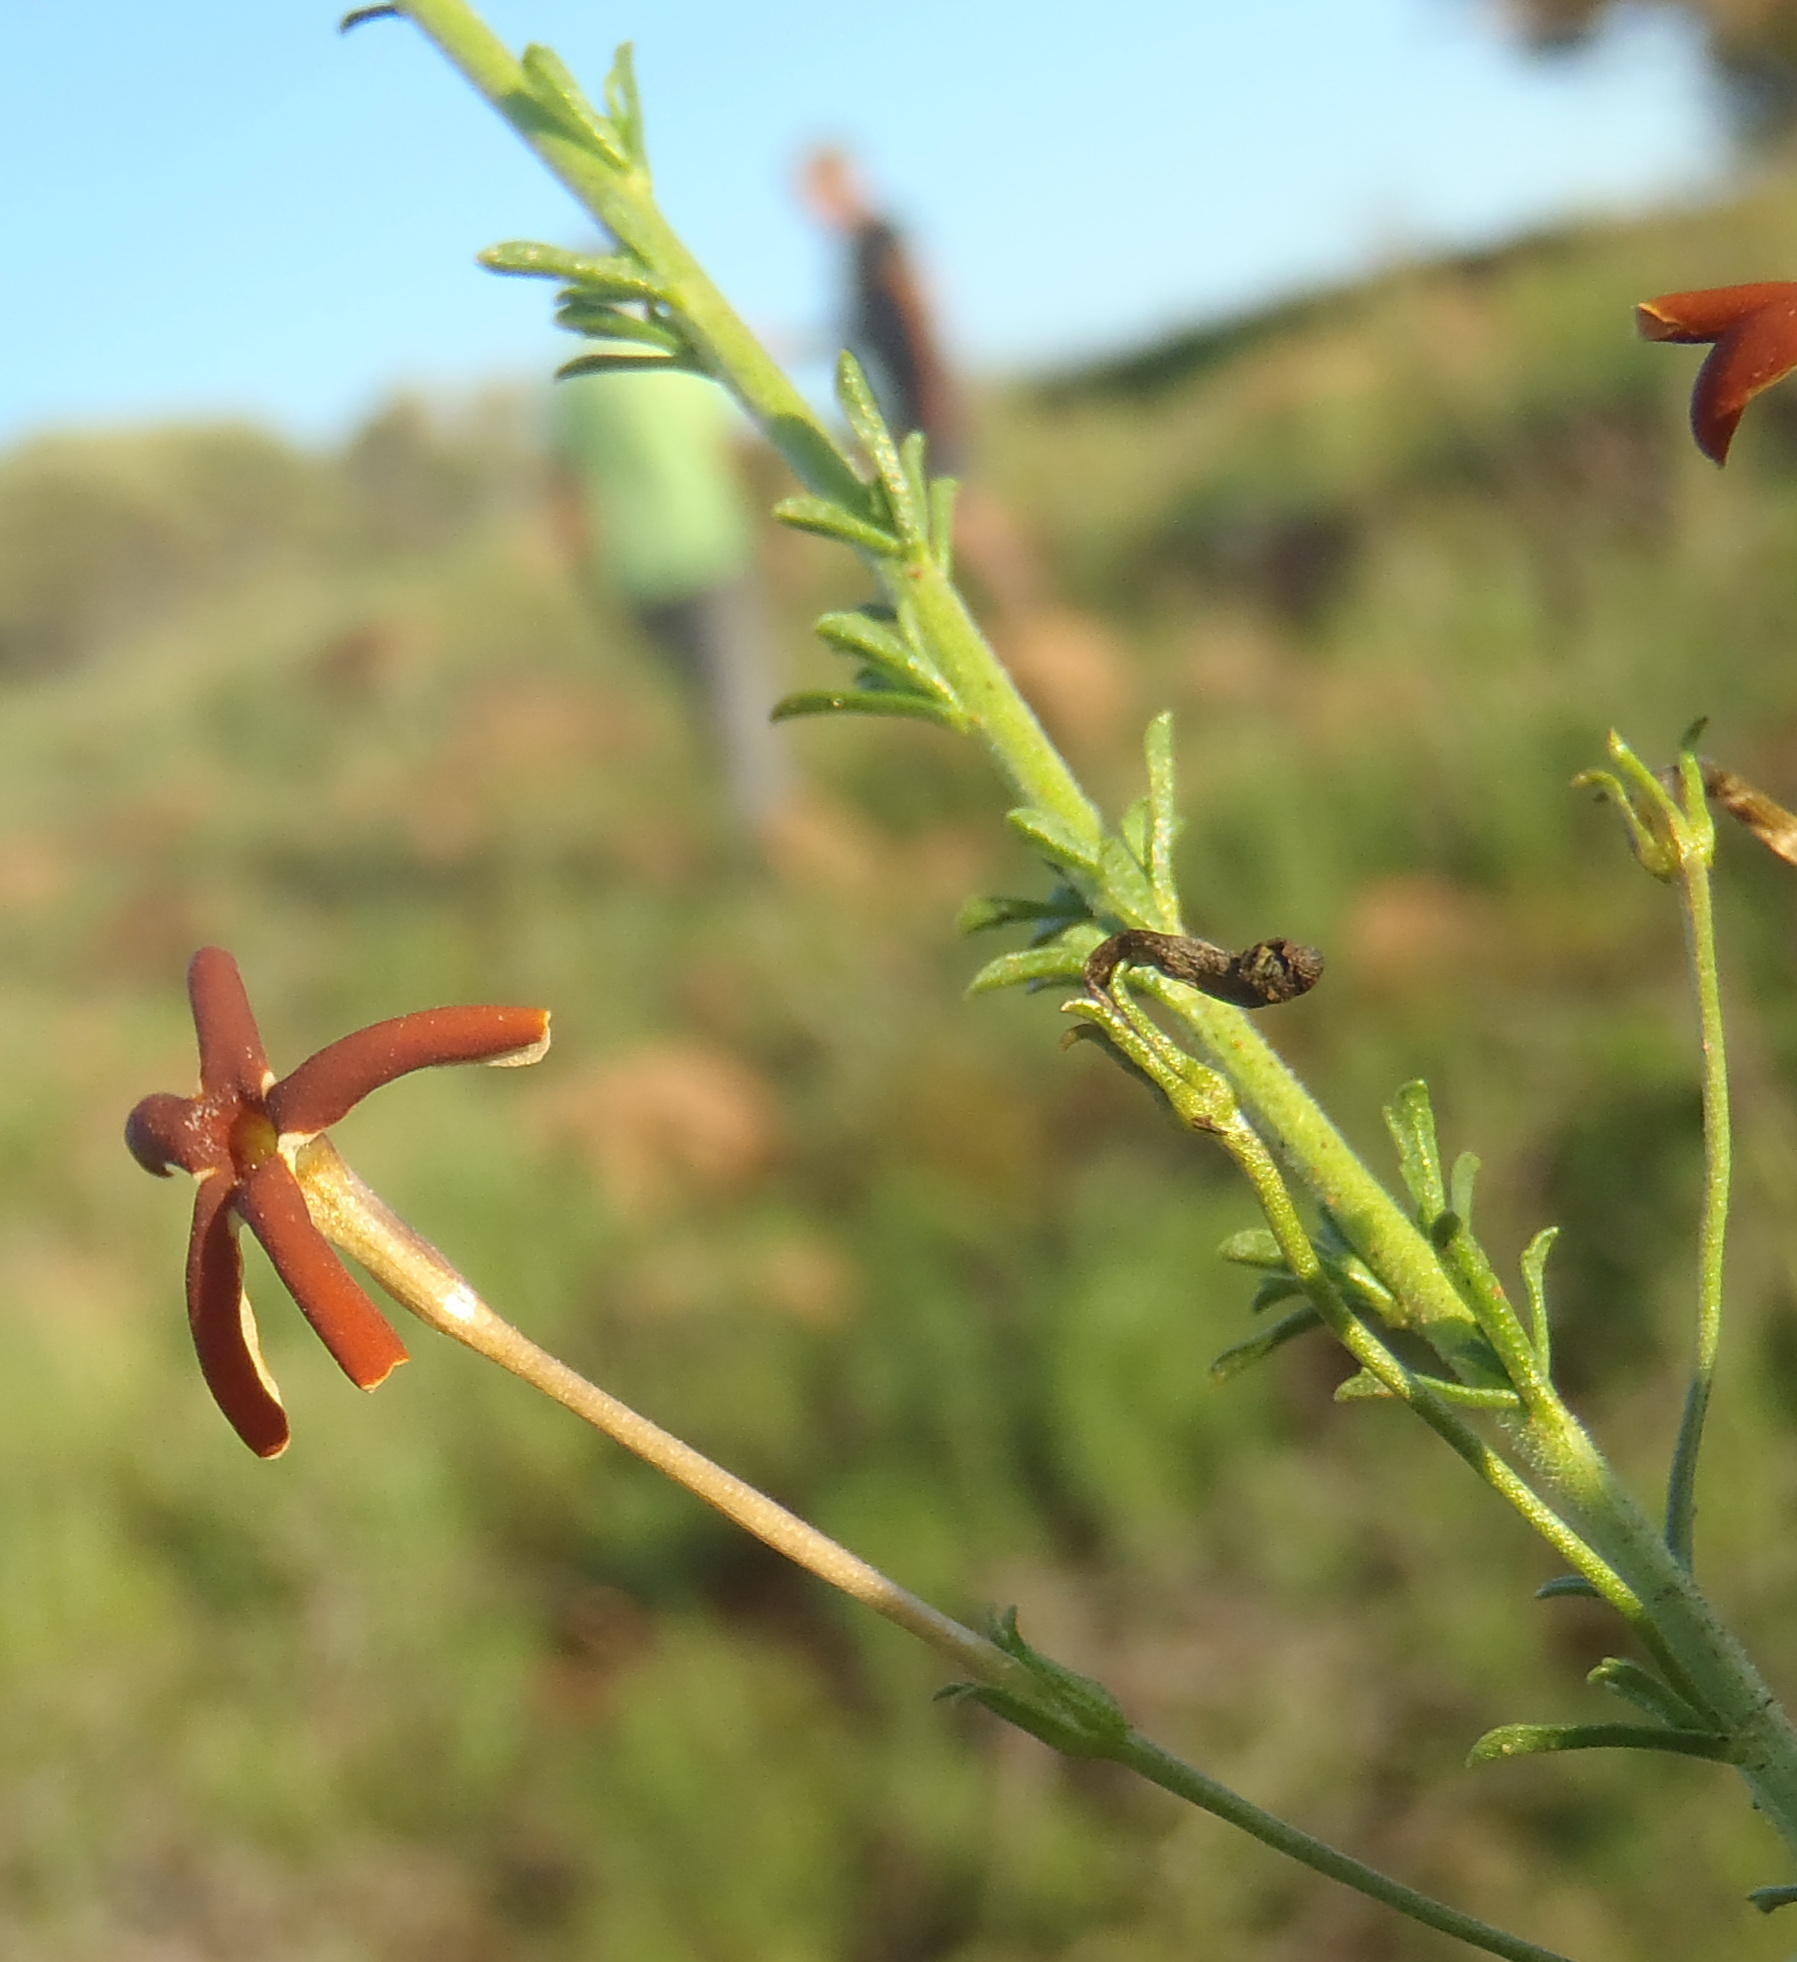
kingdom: Plantae
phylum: Tracheophyta
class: Magnoliopsida
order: Lamiales
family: Scrophulariaceae
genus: Jamesbrittenia
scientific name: Jamesbrittenia atropurpurea
